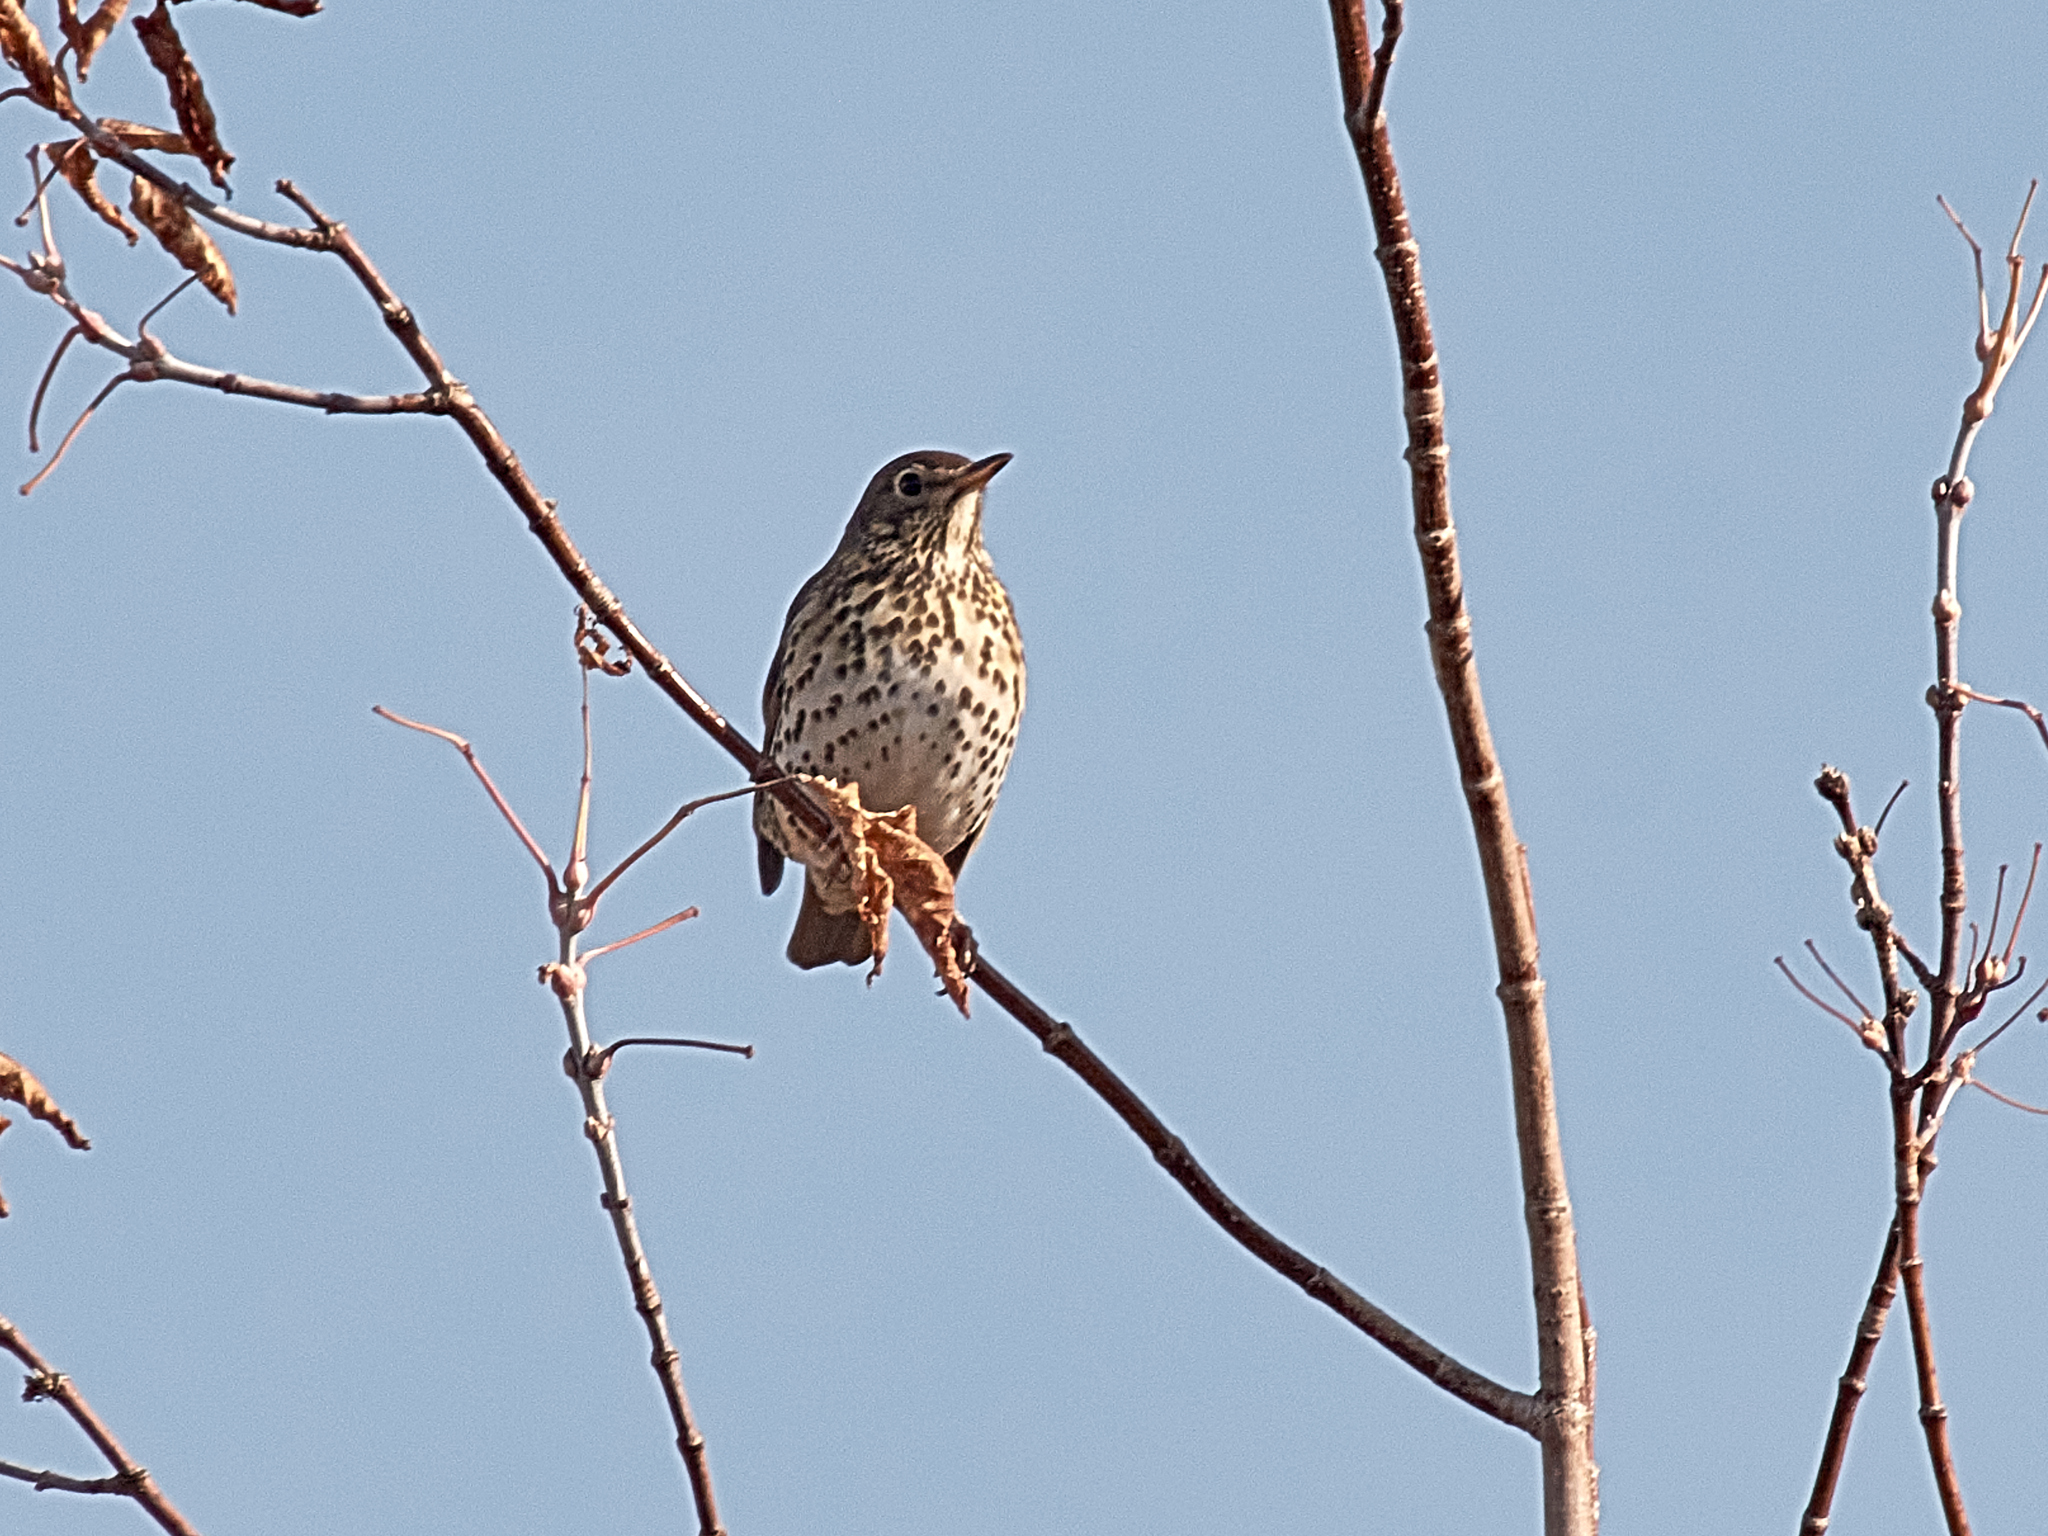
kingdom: Animalia
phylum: Chordata
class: Aves
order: Passeriformes
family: Turdidae
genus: Turdus
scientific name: Turdus philomelos
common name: Song thrush
